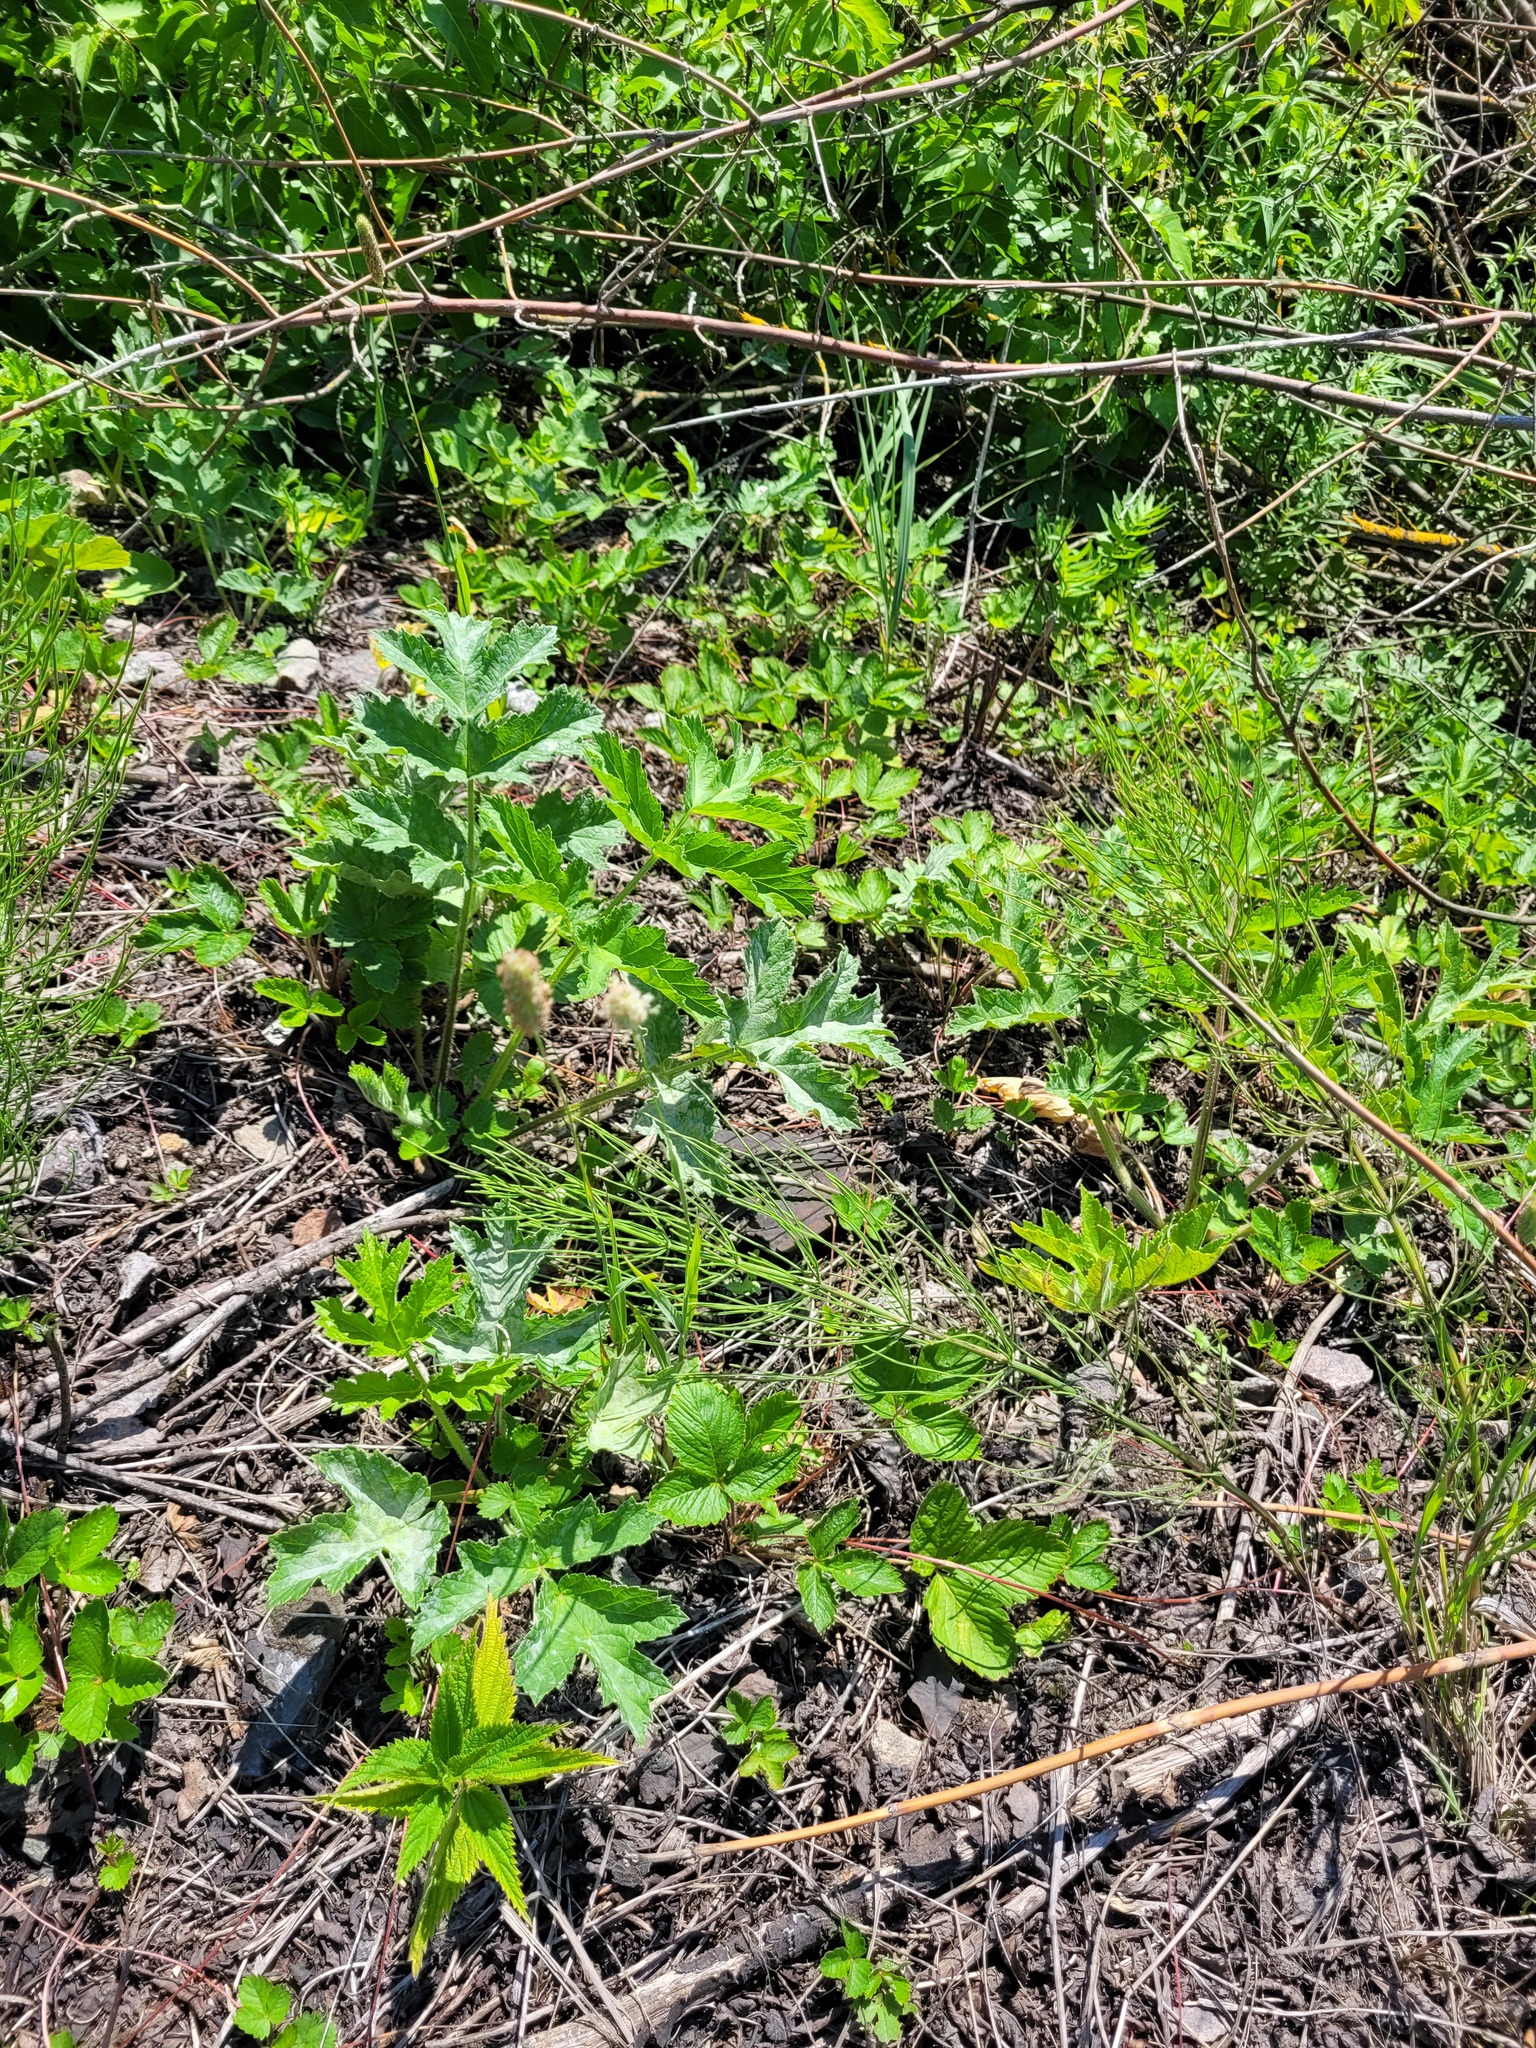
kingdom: Plantae
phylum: Tracheophyta
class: Magnoliopsida
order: Apiales
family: Apiaceae
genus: Heracleum
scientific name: Heracleum sphondylium
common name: Hogweed
